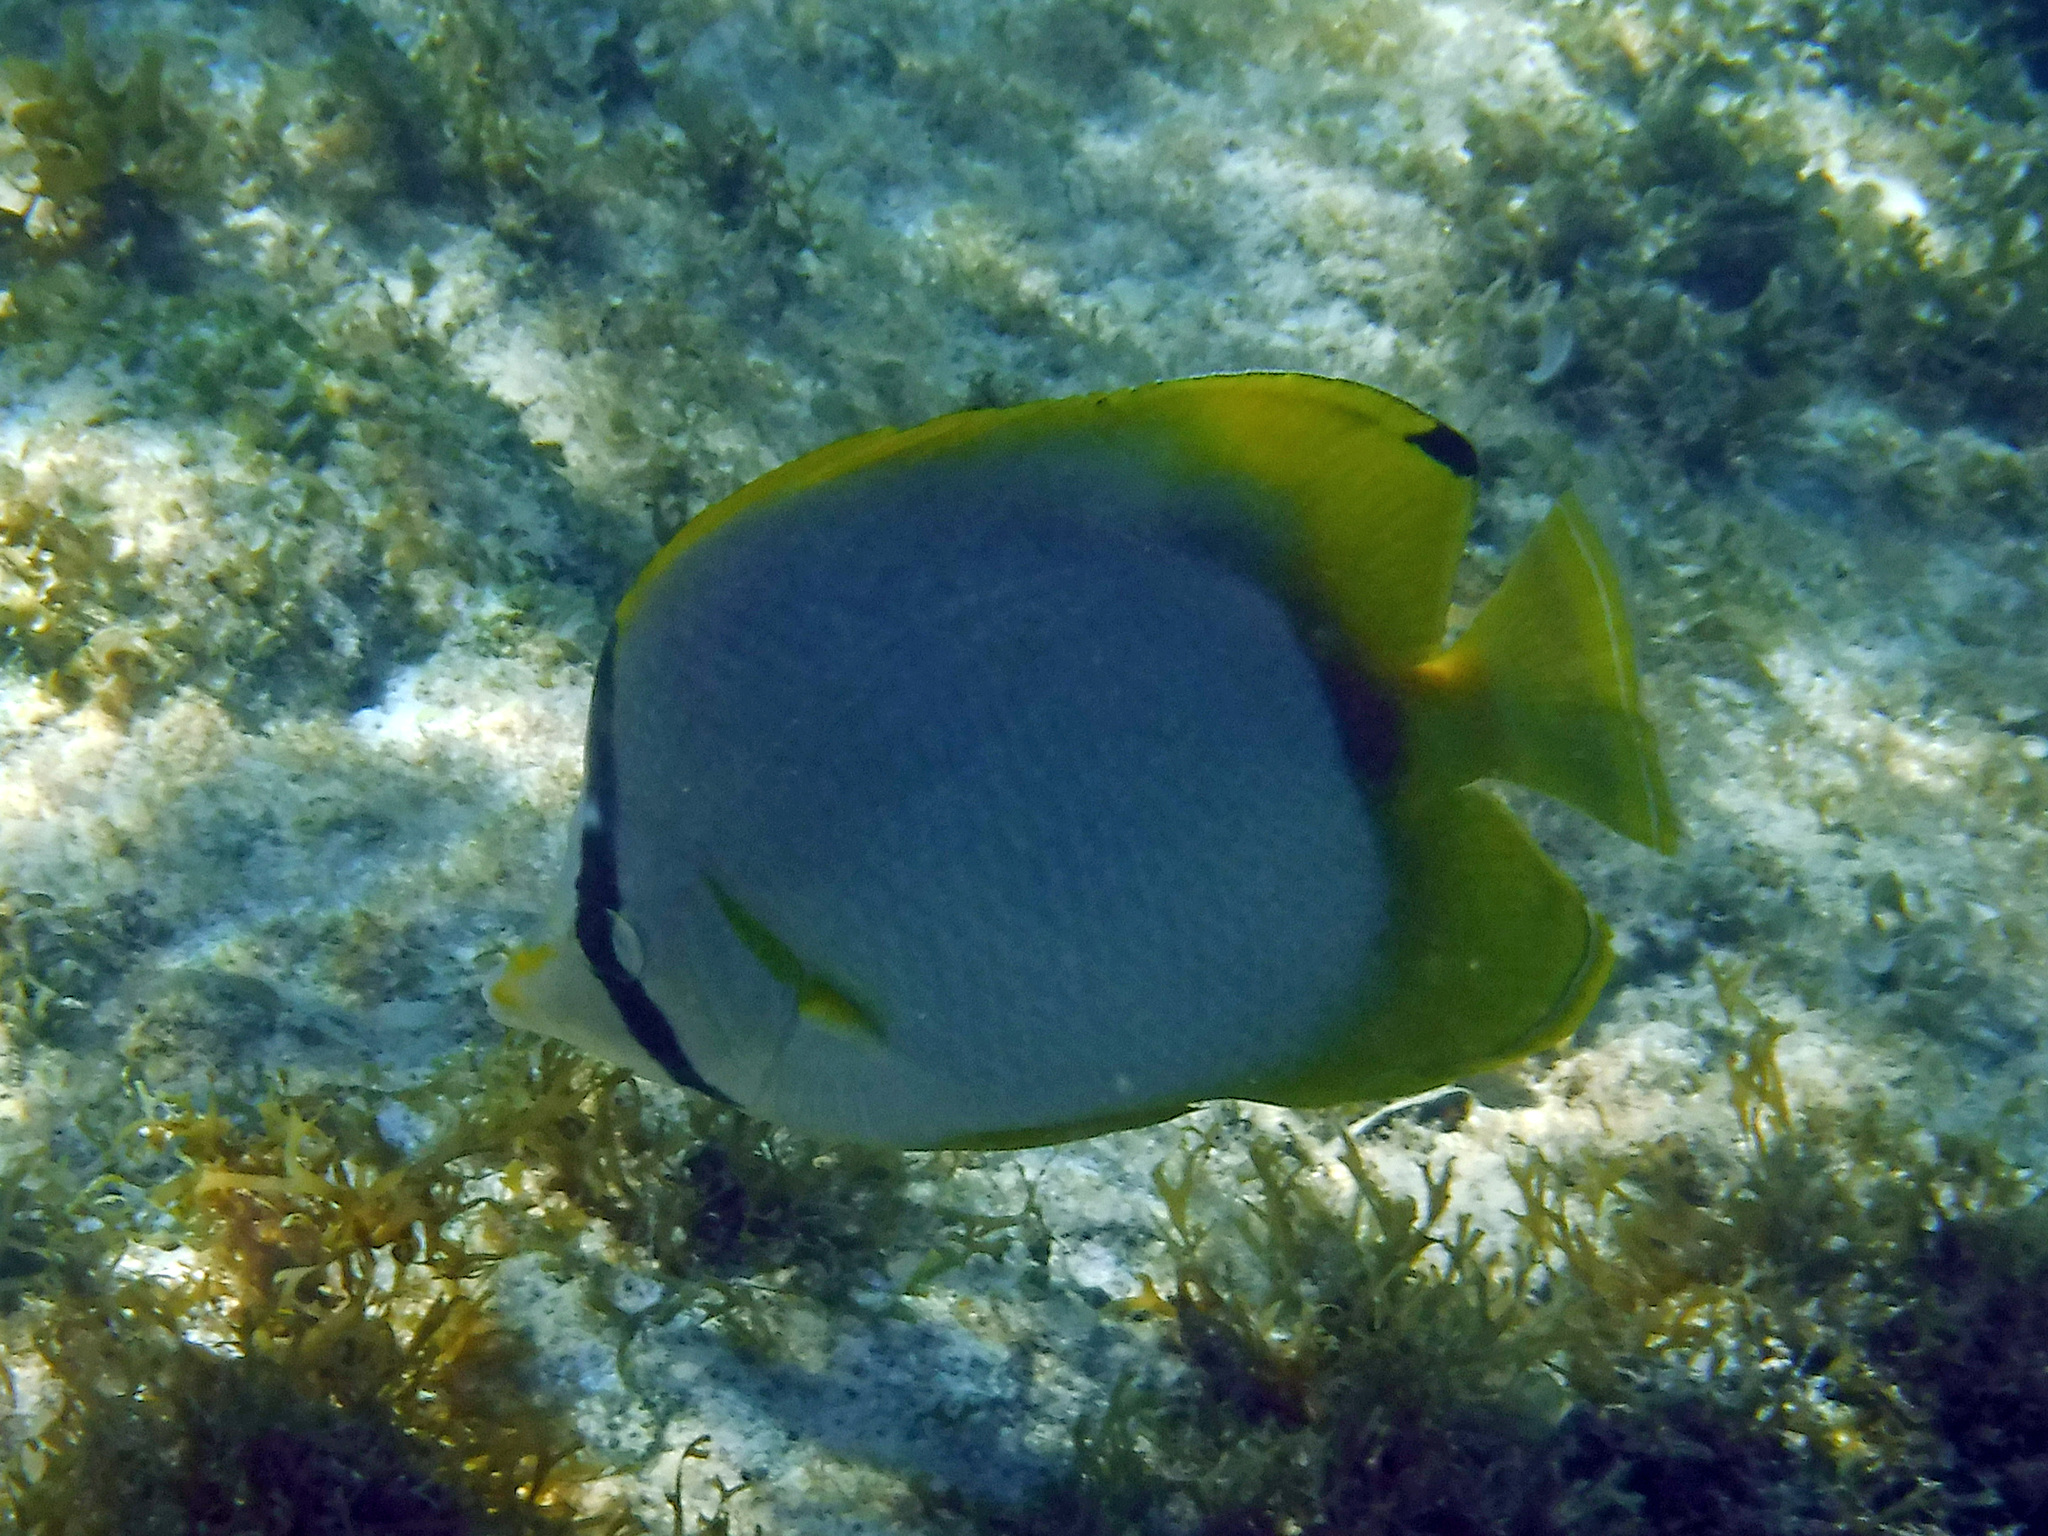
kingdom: Animalia
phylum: Chordata
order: Perciformes
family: Chaetodontidae
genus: Chaetodon
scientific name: Chaetodon ocellatus
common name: Spotfin butterflyfish
